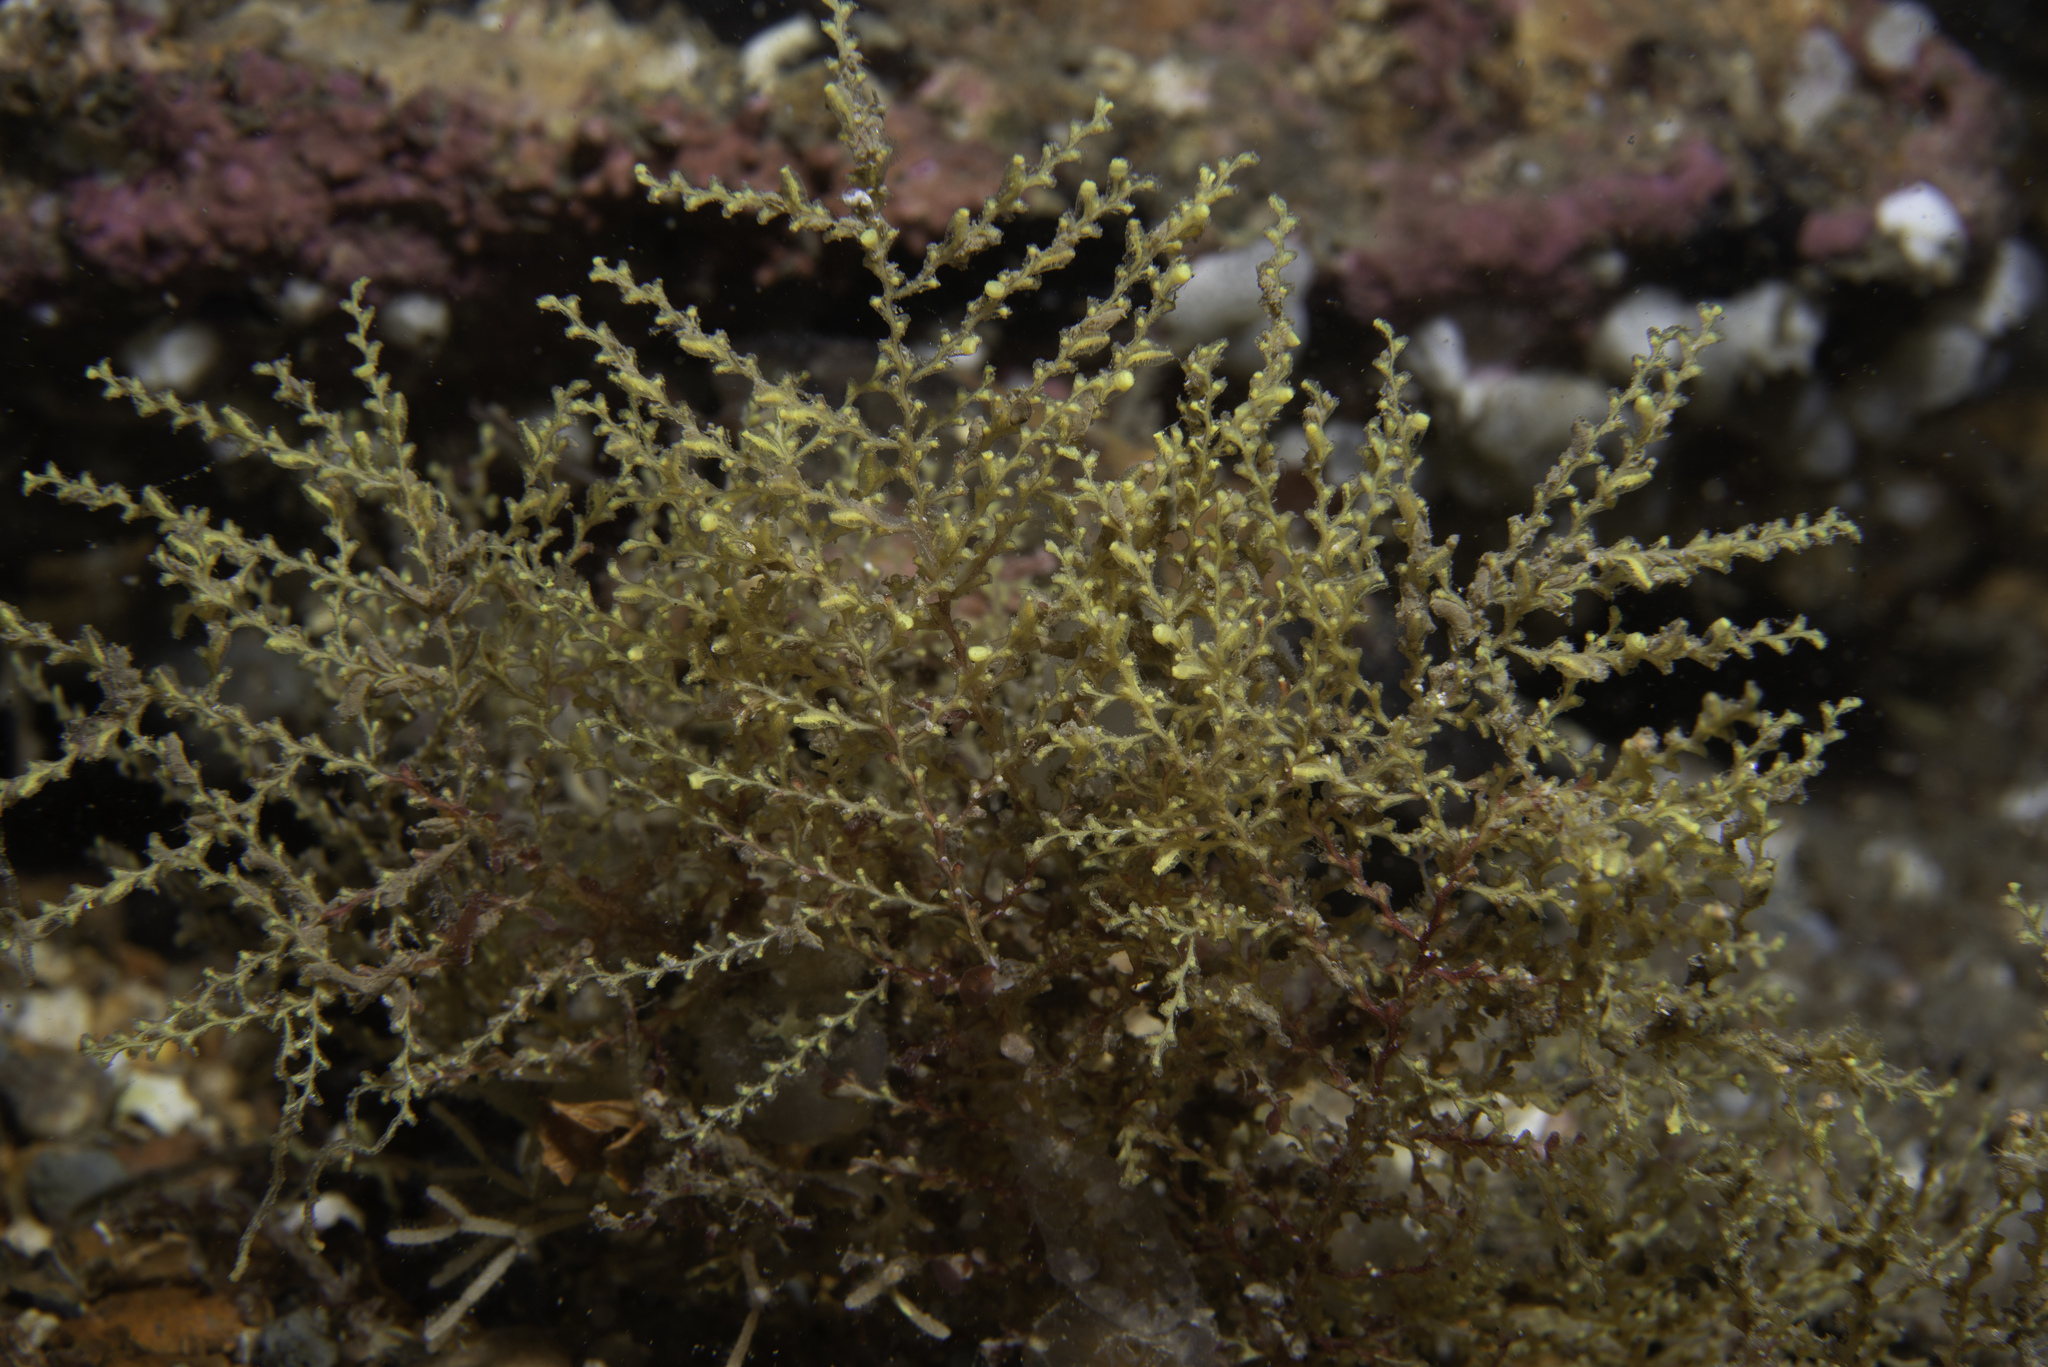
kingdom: Animalia
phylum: Cnidaria
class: Hydrozoa
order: Leptothecata
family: Sertularellidae
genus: Sertularella
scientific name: Sertularella gayi
